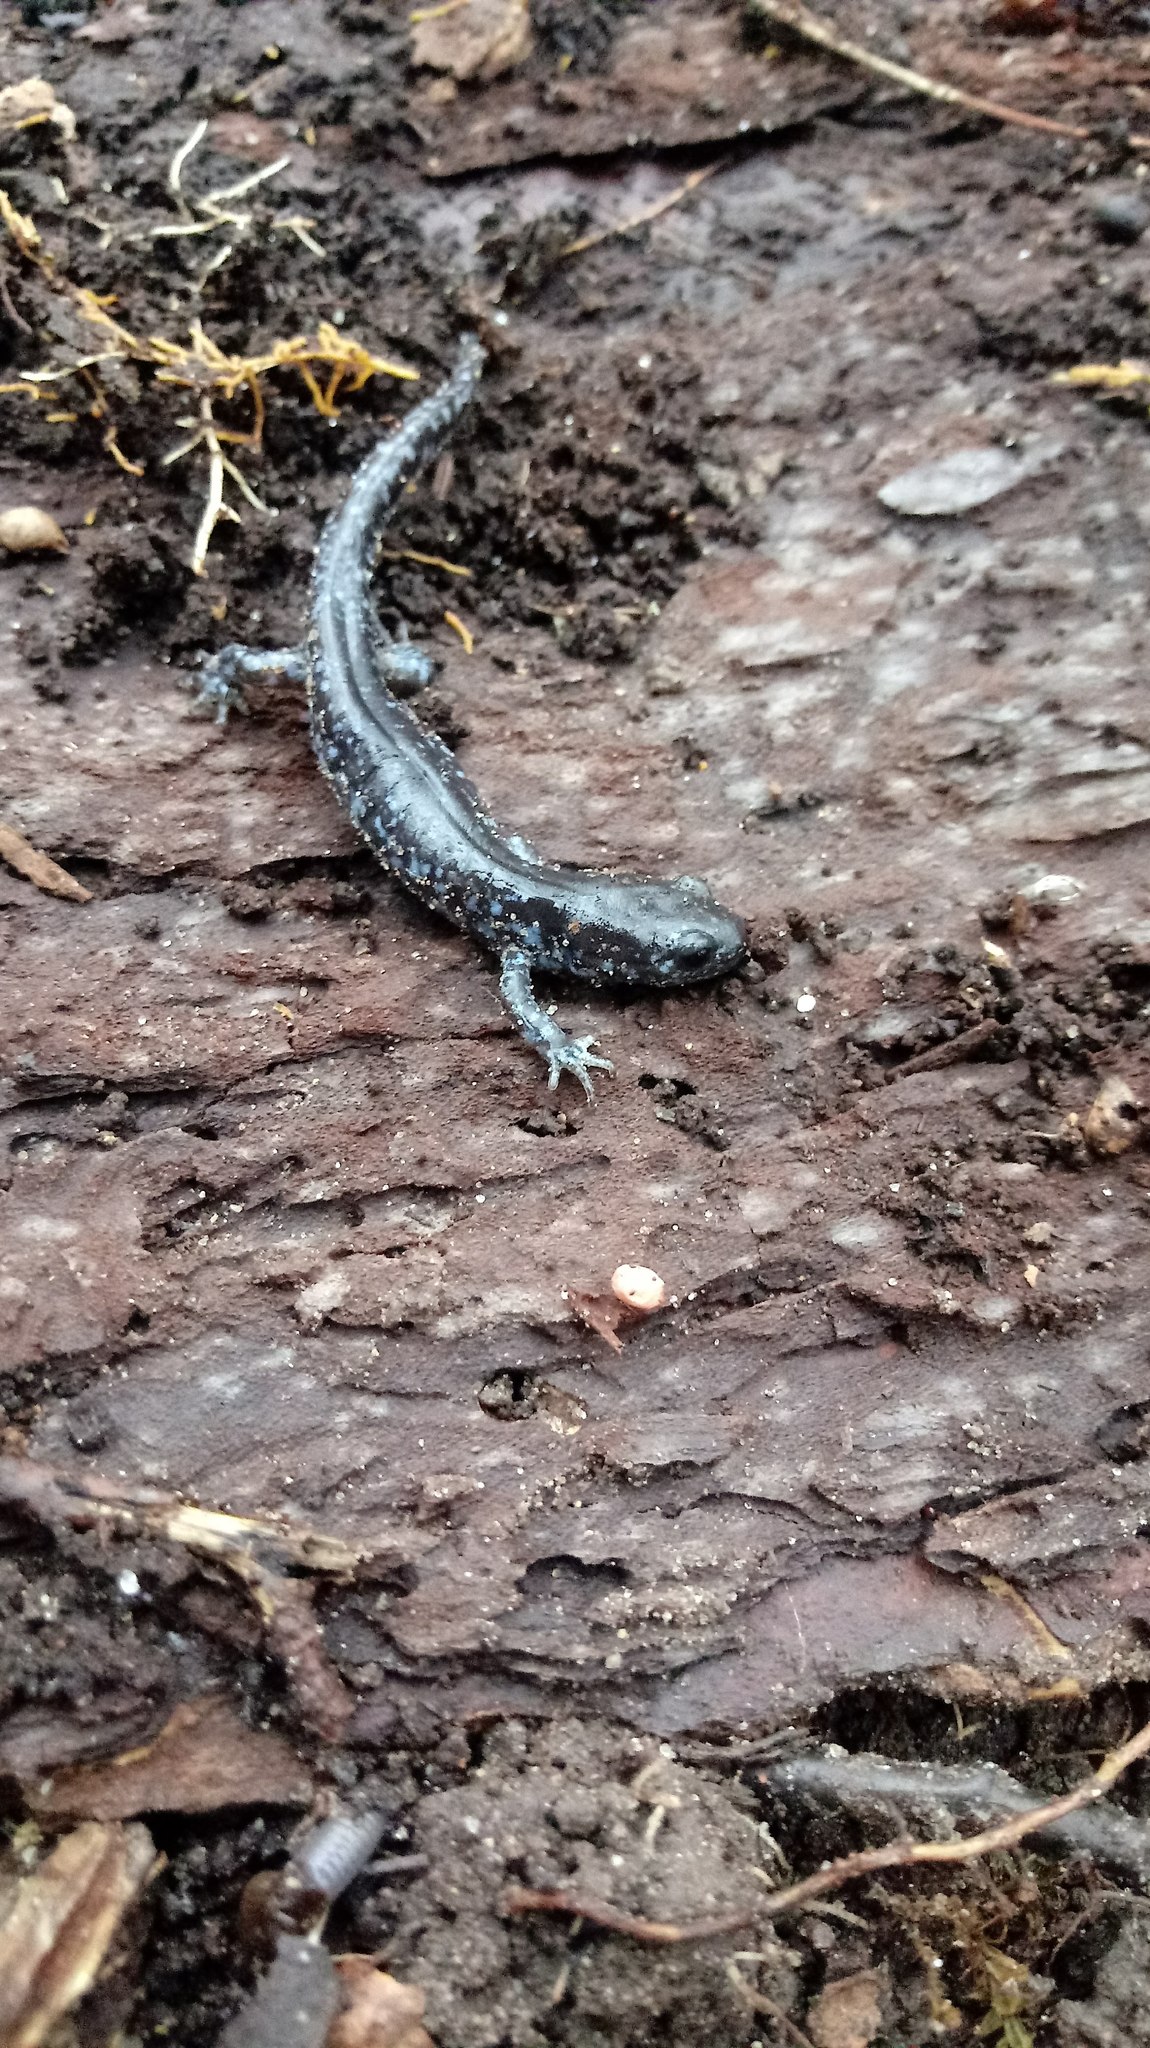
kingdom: Animalia
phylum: Chordata
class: Amphibia
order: Caudata
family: Ambystomatidae
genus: Ambystoma
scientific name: Ambystoma laterale
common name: Blue-spotted salamander
